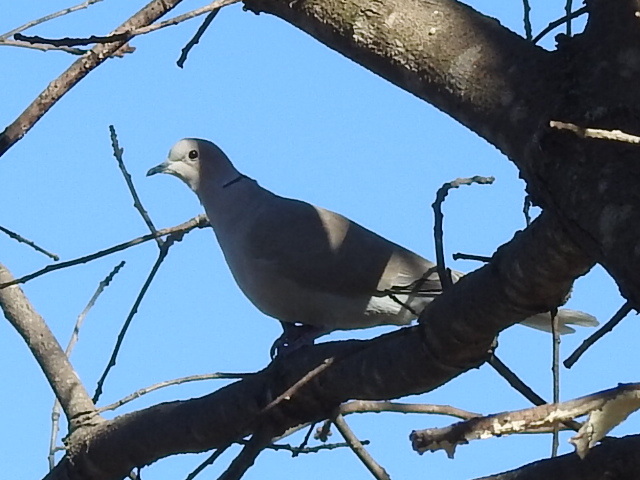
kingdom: Animalia
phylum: Chordata
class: Aves
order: Columbiformes
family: Columbidae
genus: Streptopelia
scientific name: Streptopelia decaocto
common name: Eurasian collared dove
